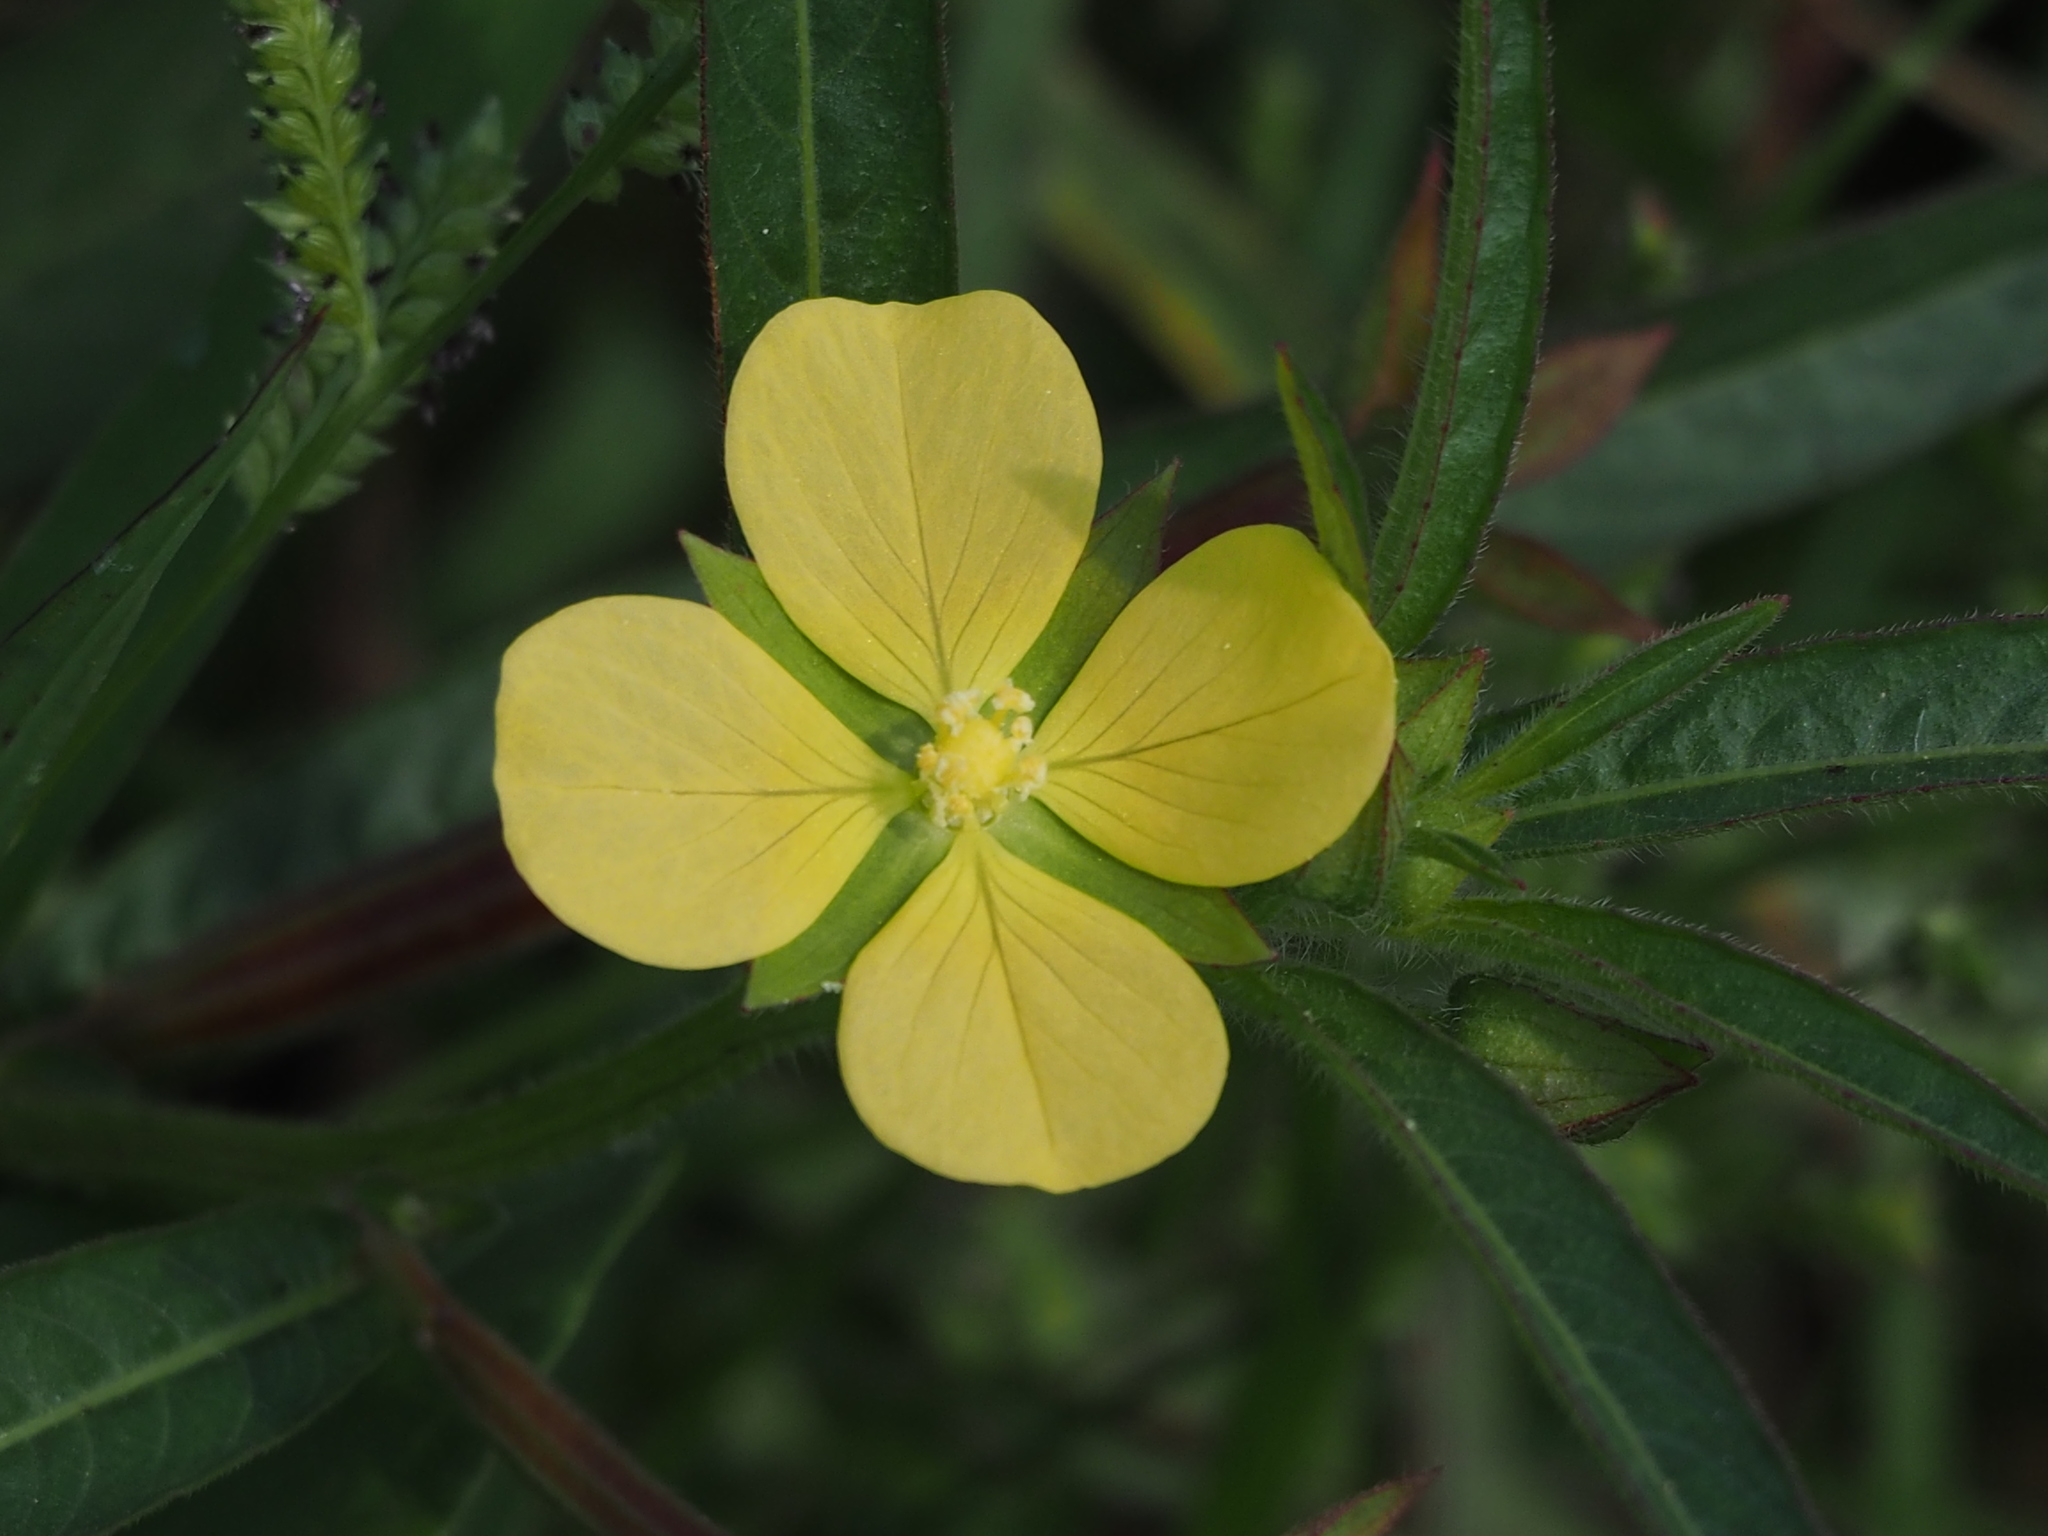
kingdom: Plantae
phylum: Tracheophyta
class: Magnoliopsida
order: Myrtales
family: Onagraceae
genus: Ludwigia
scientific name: Ludwigia octovalvis
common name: Water-primrose
